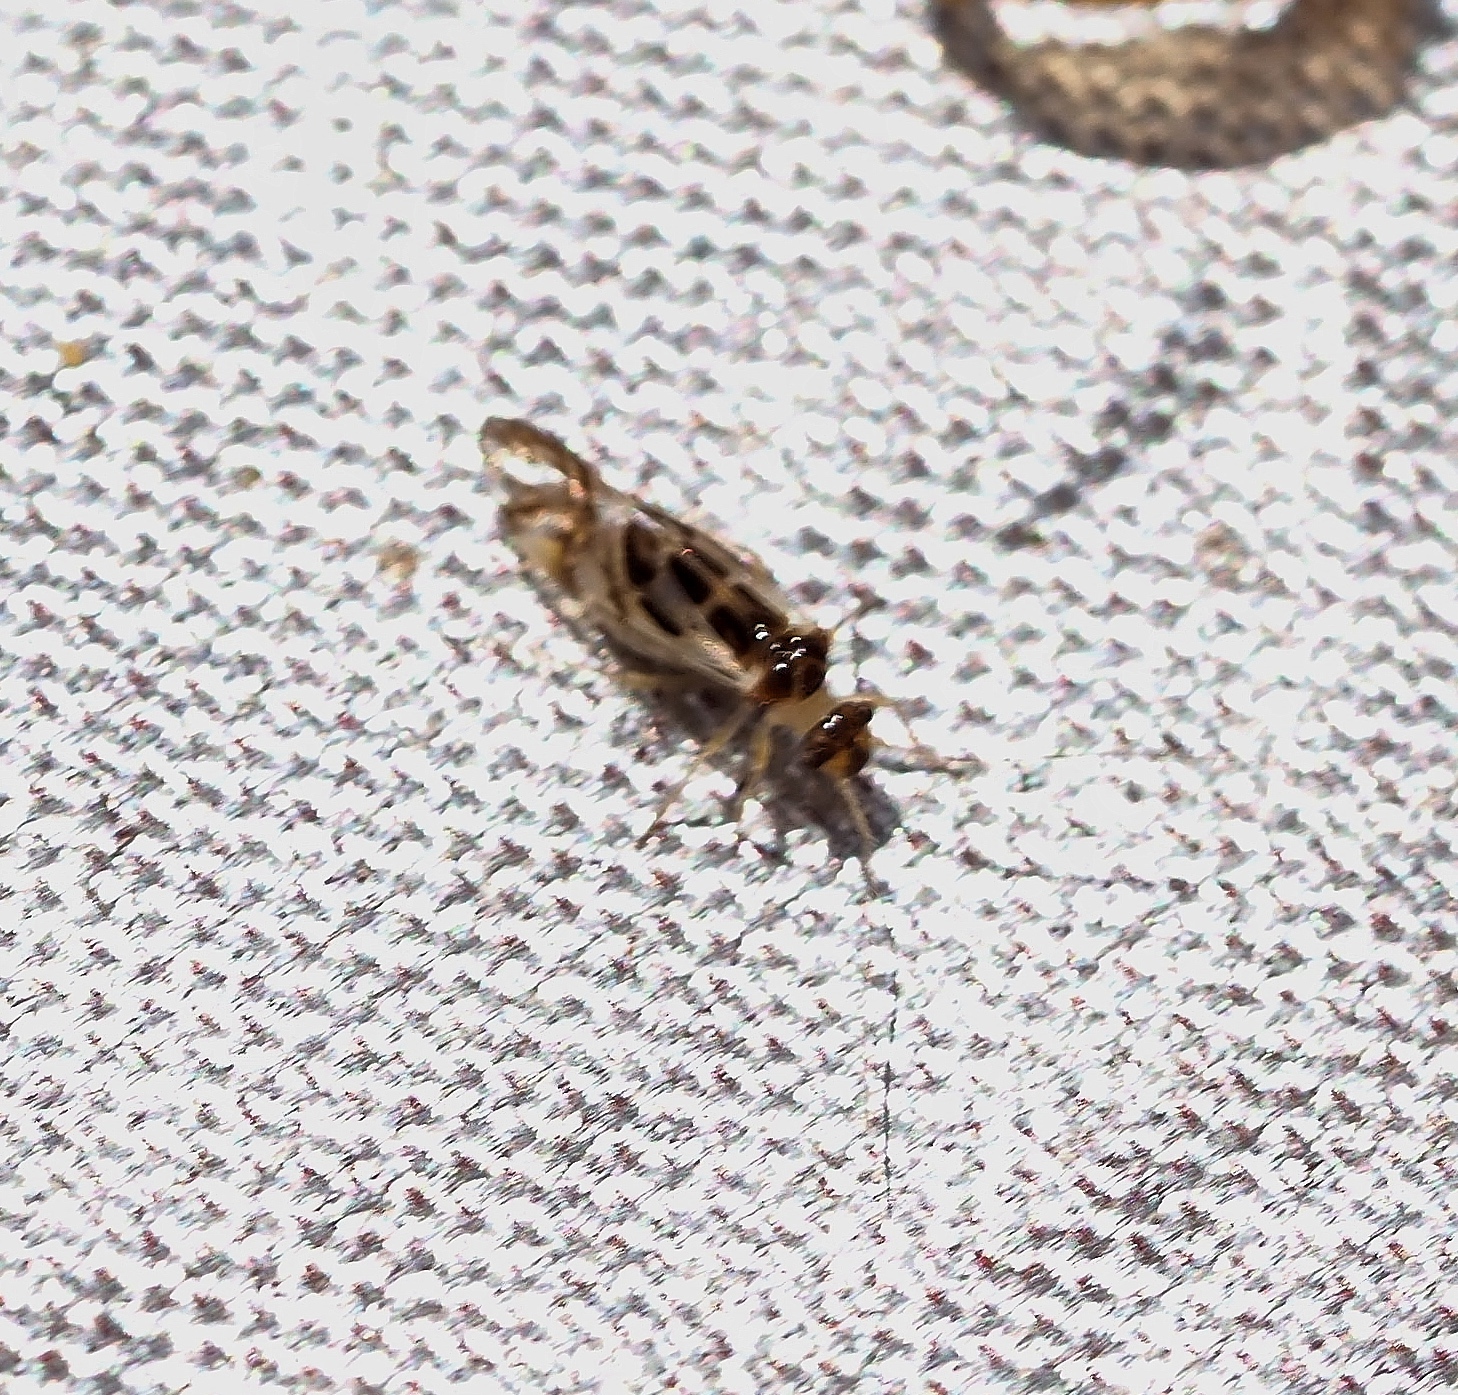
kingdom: Animalia
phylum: Arthropoda
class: Insecta
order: Psocodea
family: Stenopsocidae
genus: Graphopsocus
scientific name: Graphopsocus cruciatus
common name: Lizard bark louse
